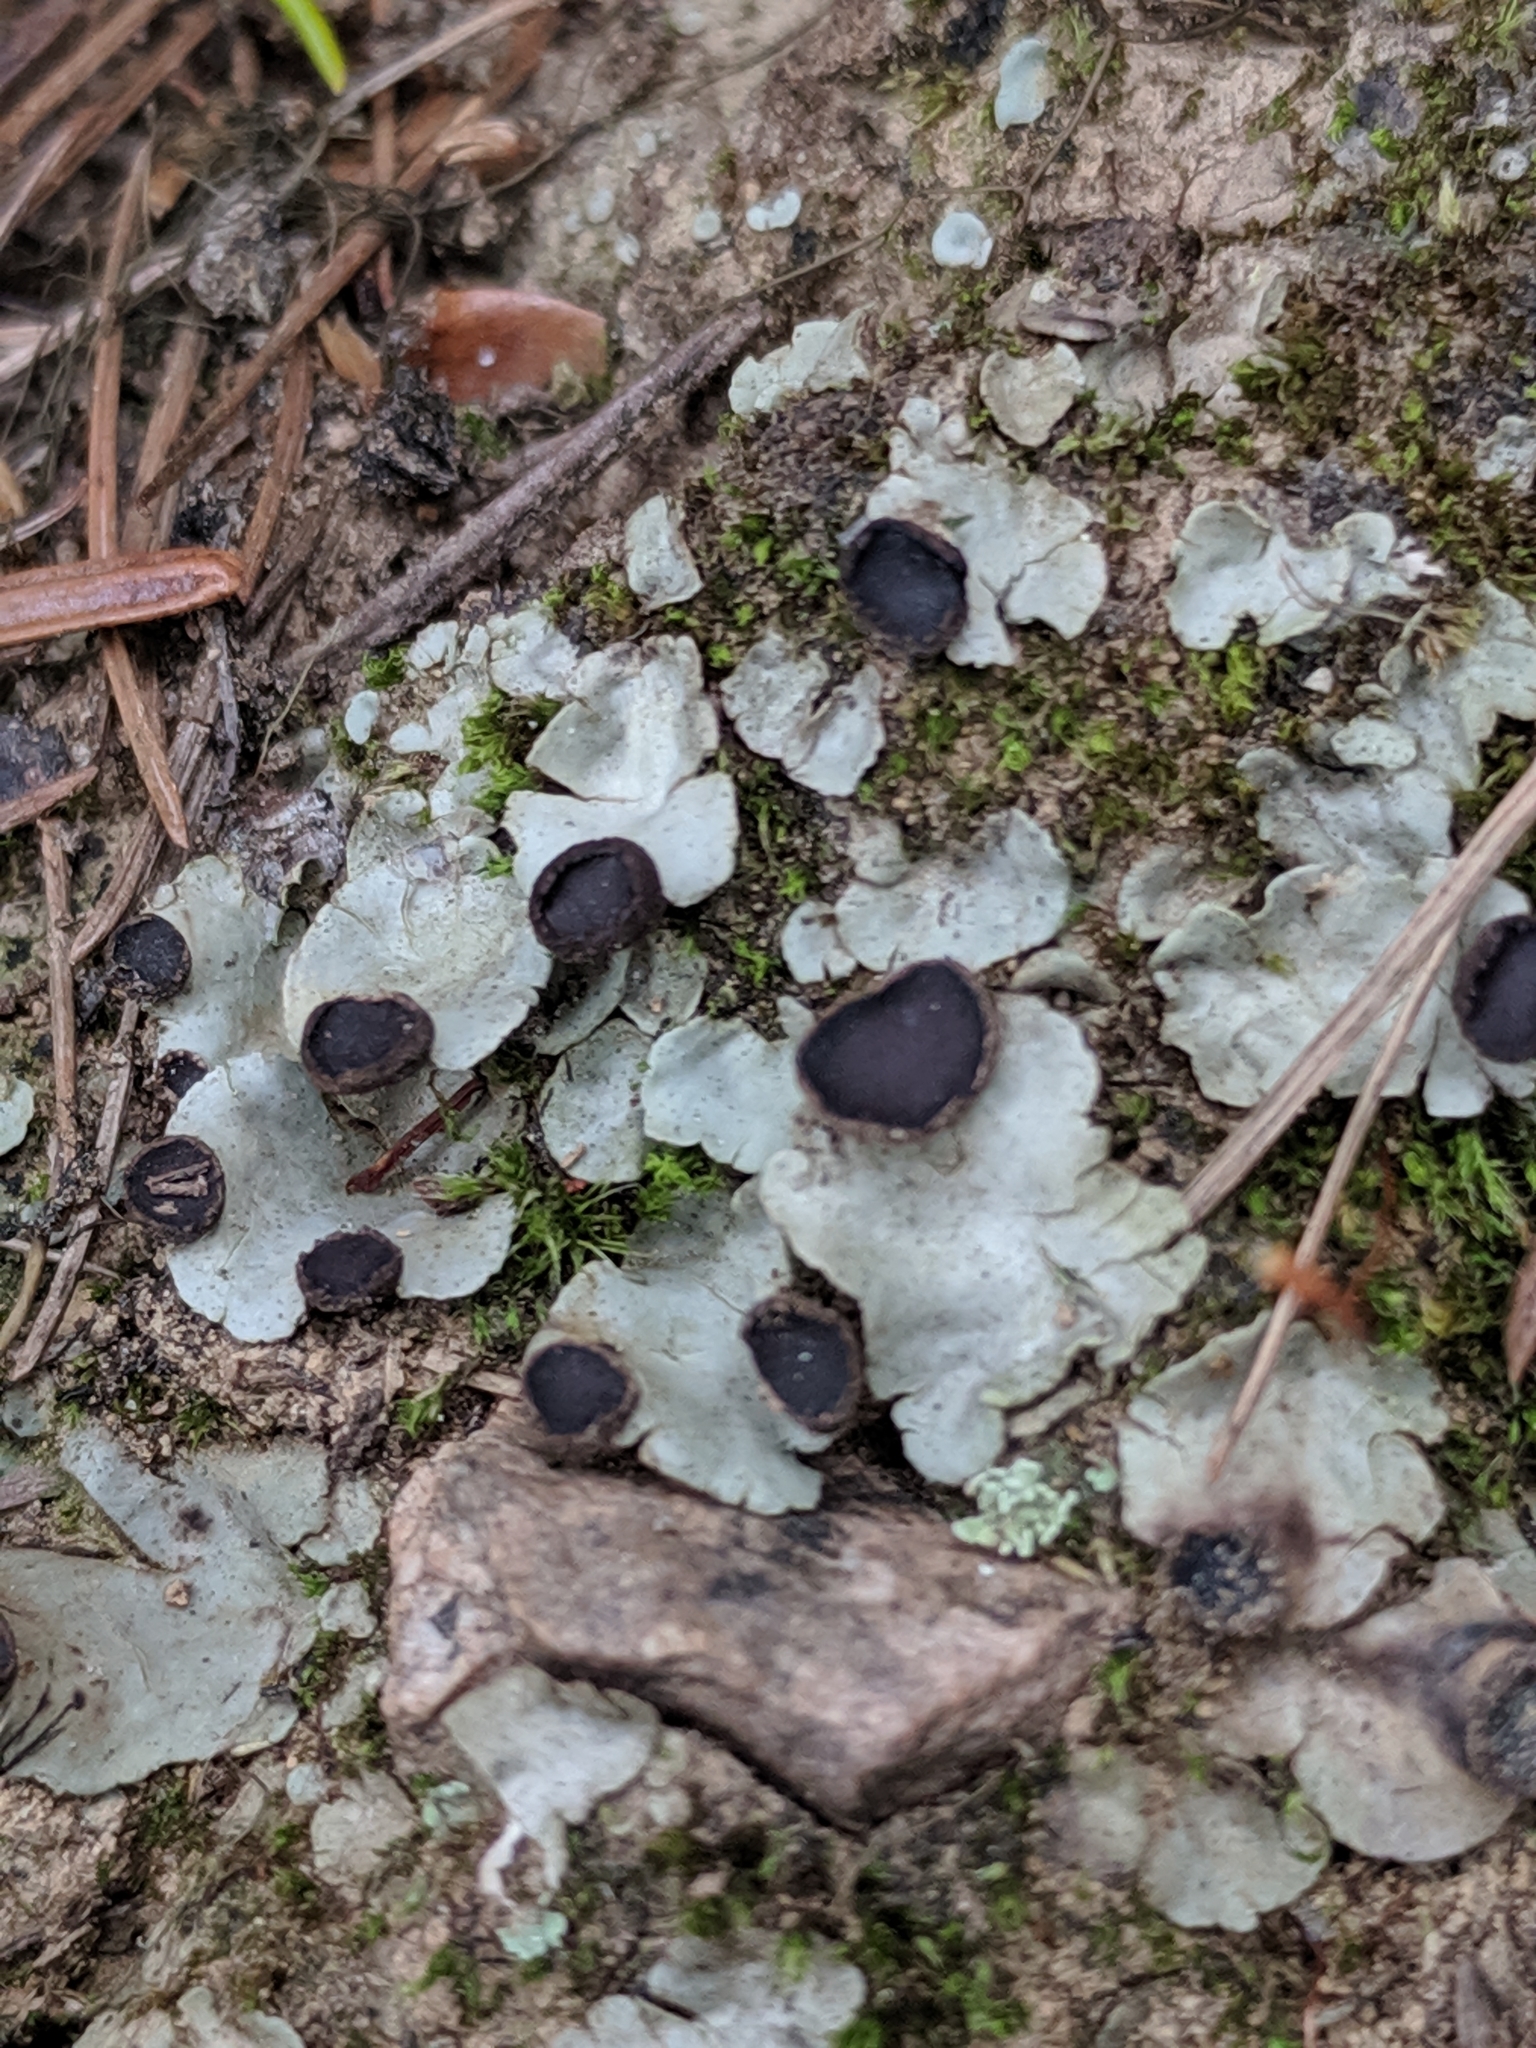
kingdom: Fungi
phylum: Ascomycota
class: Lecanoromycetes
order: Peltigerales
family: Peltigeraceae
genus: Peltigera
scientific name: Peltigera venosa
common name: Pixie gowns lichen
